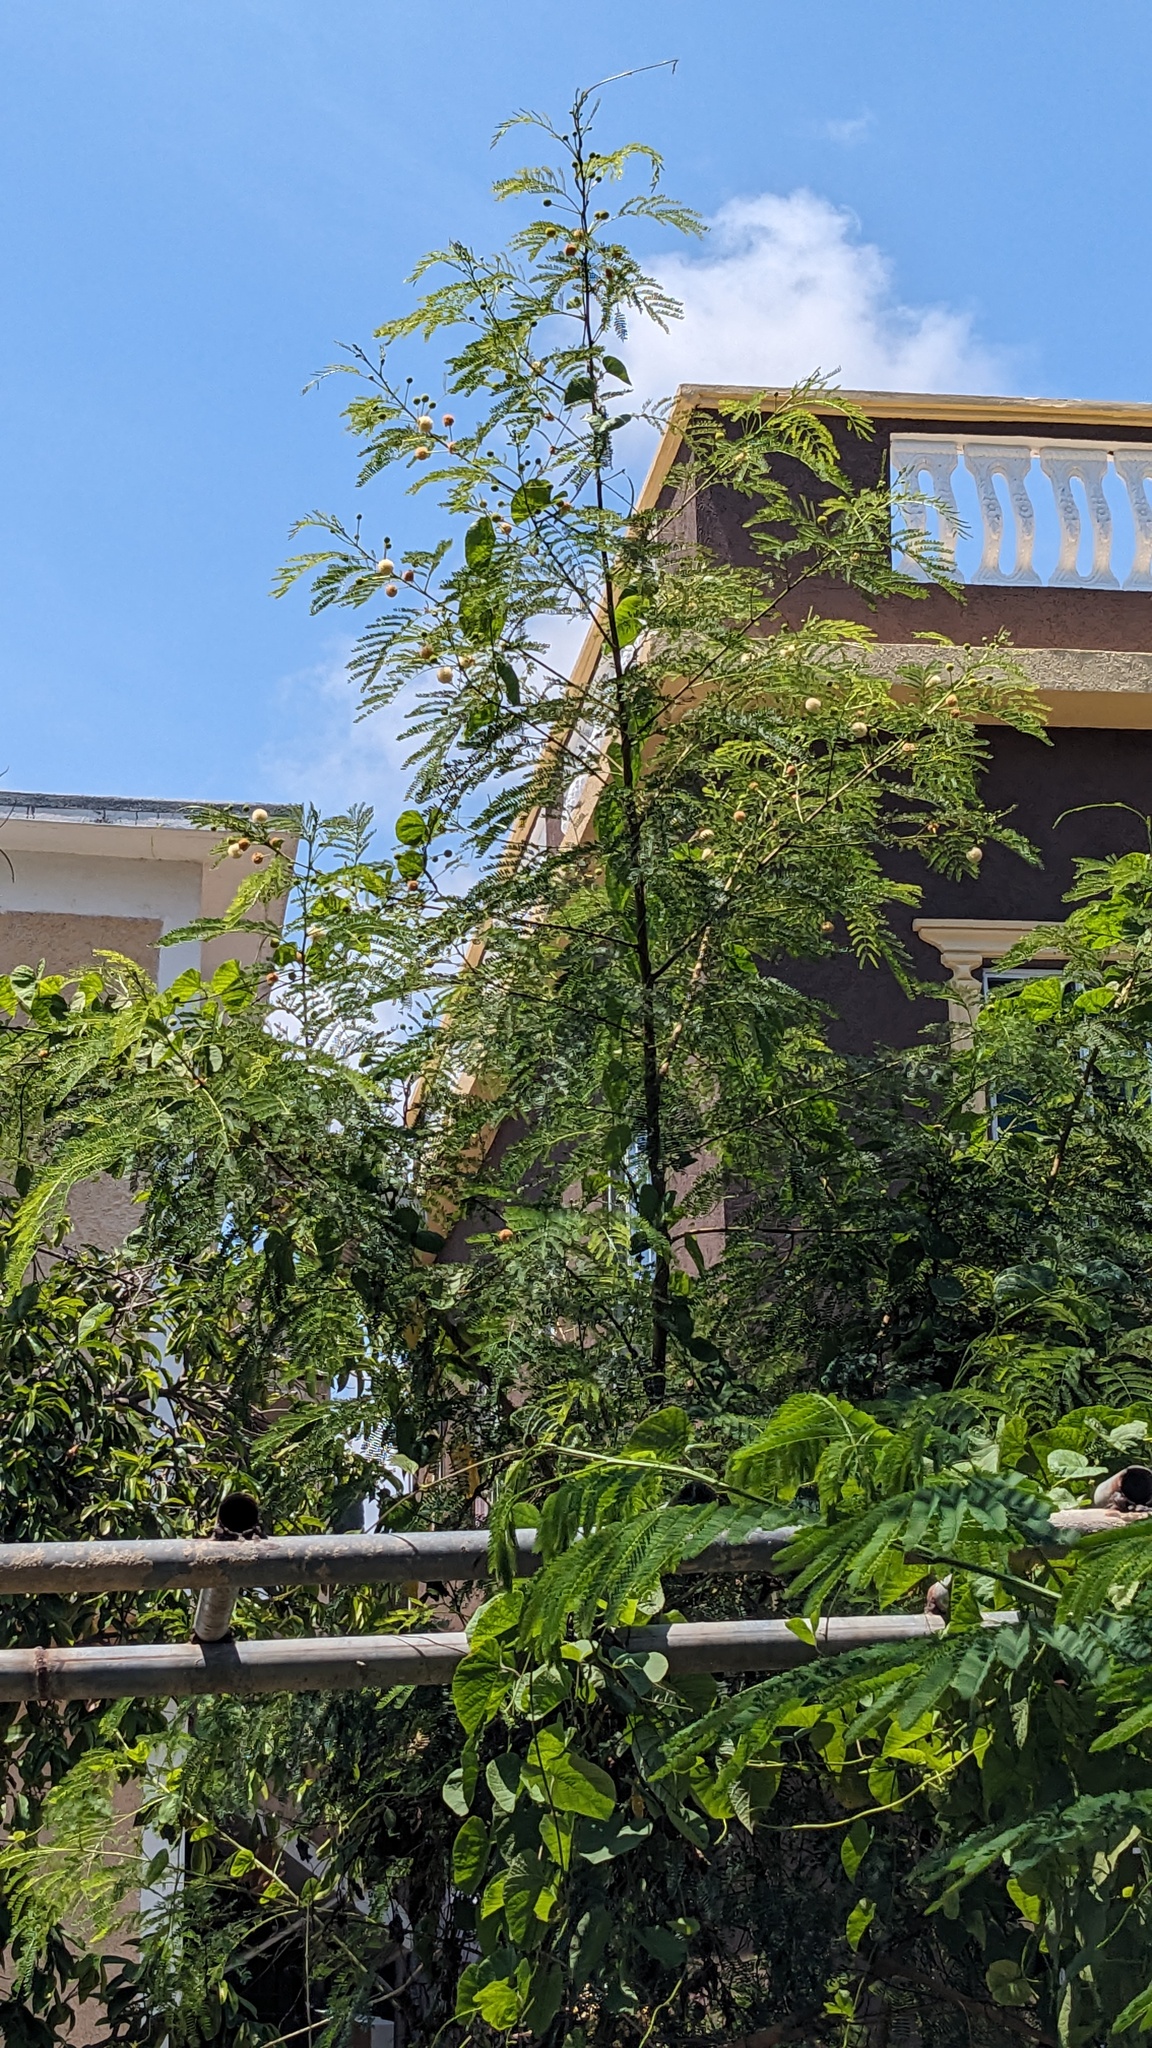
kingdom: Plantae
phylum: Tracheophyta
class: Magnoliopsida
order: Fabales
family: Fabaceae
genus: Leucaena
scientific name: Leucaena leucocephala
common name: White leadtree
